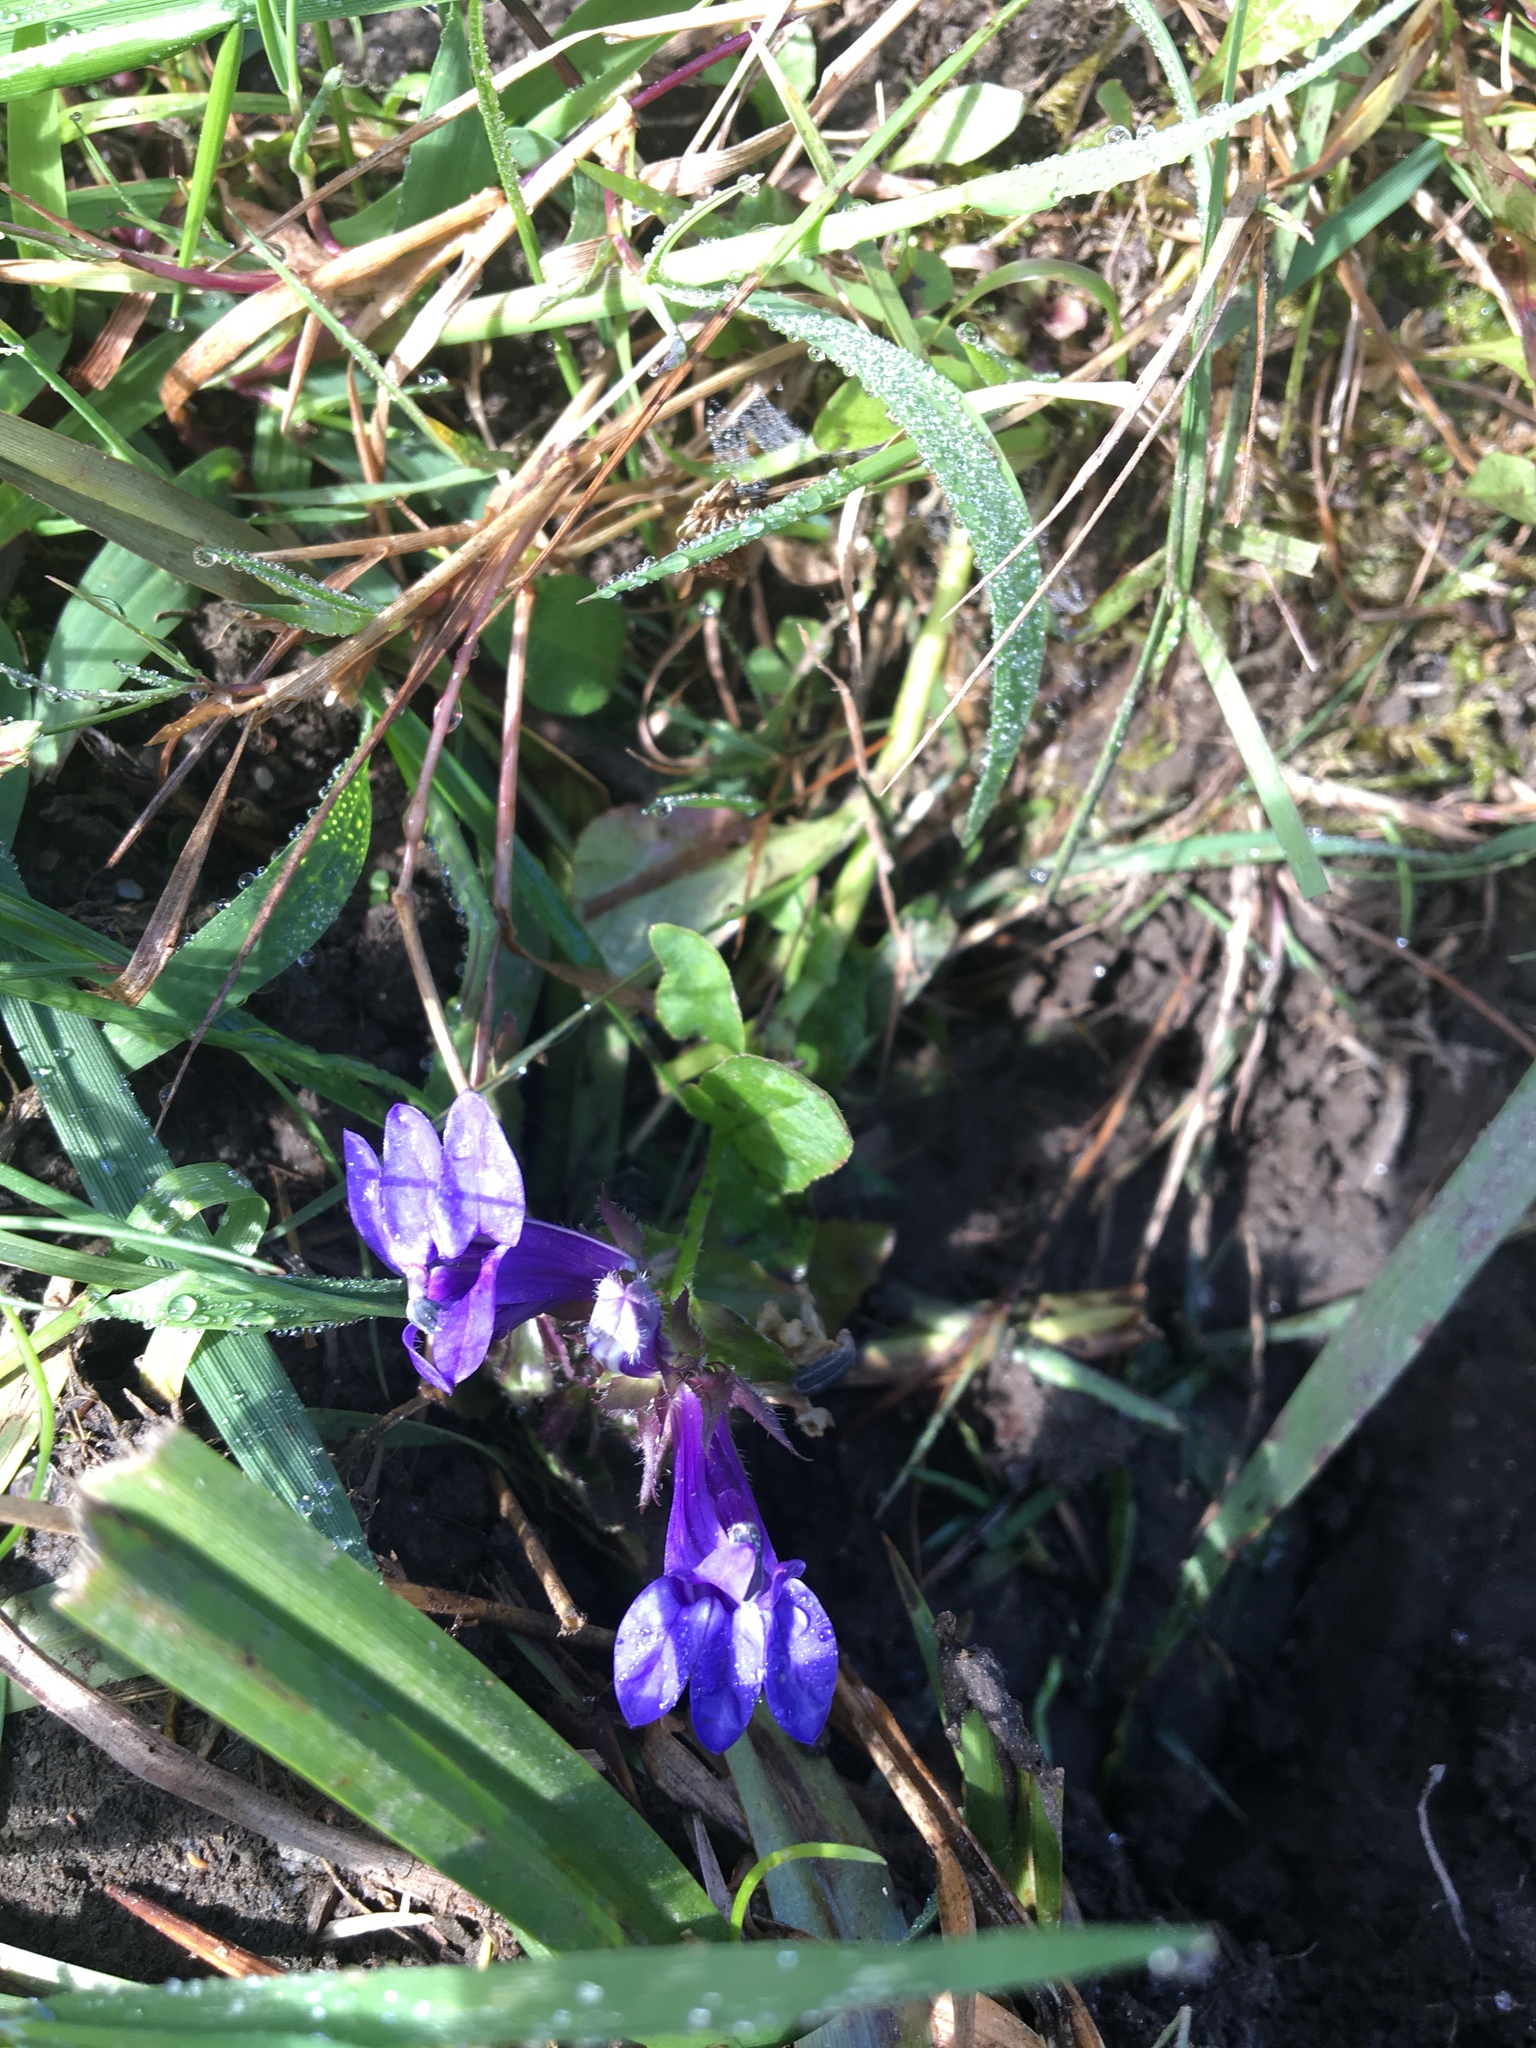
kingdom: Plantae
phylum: Tracheophyta
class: Magnoliopsida
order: Asterales
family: Campanulaceae
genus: Lobelia
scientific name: Lobelia siphilitica
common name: Great lobelia
